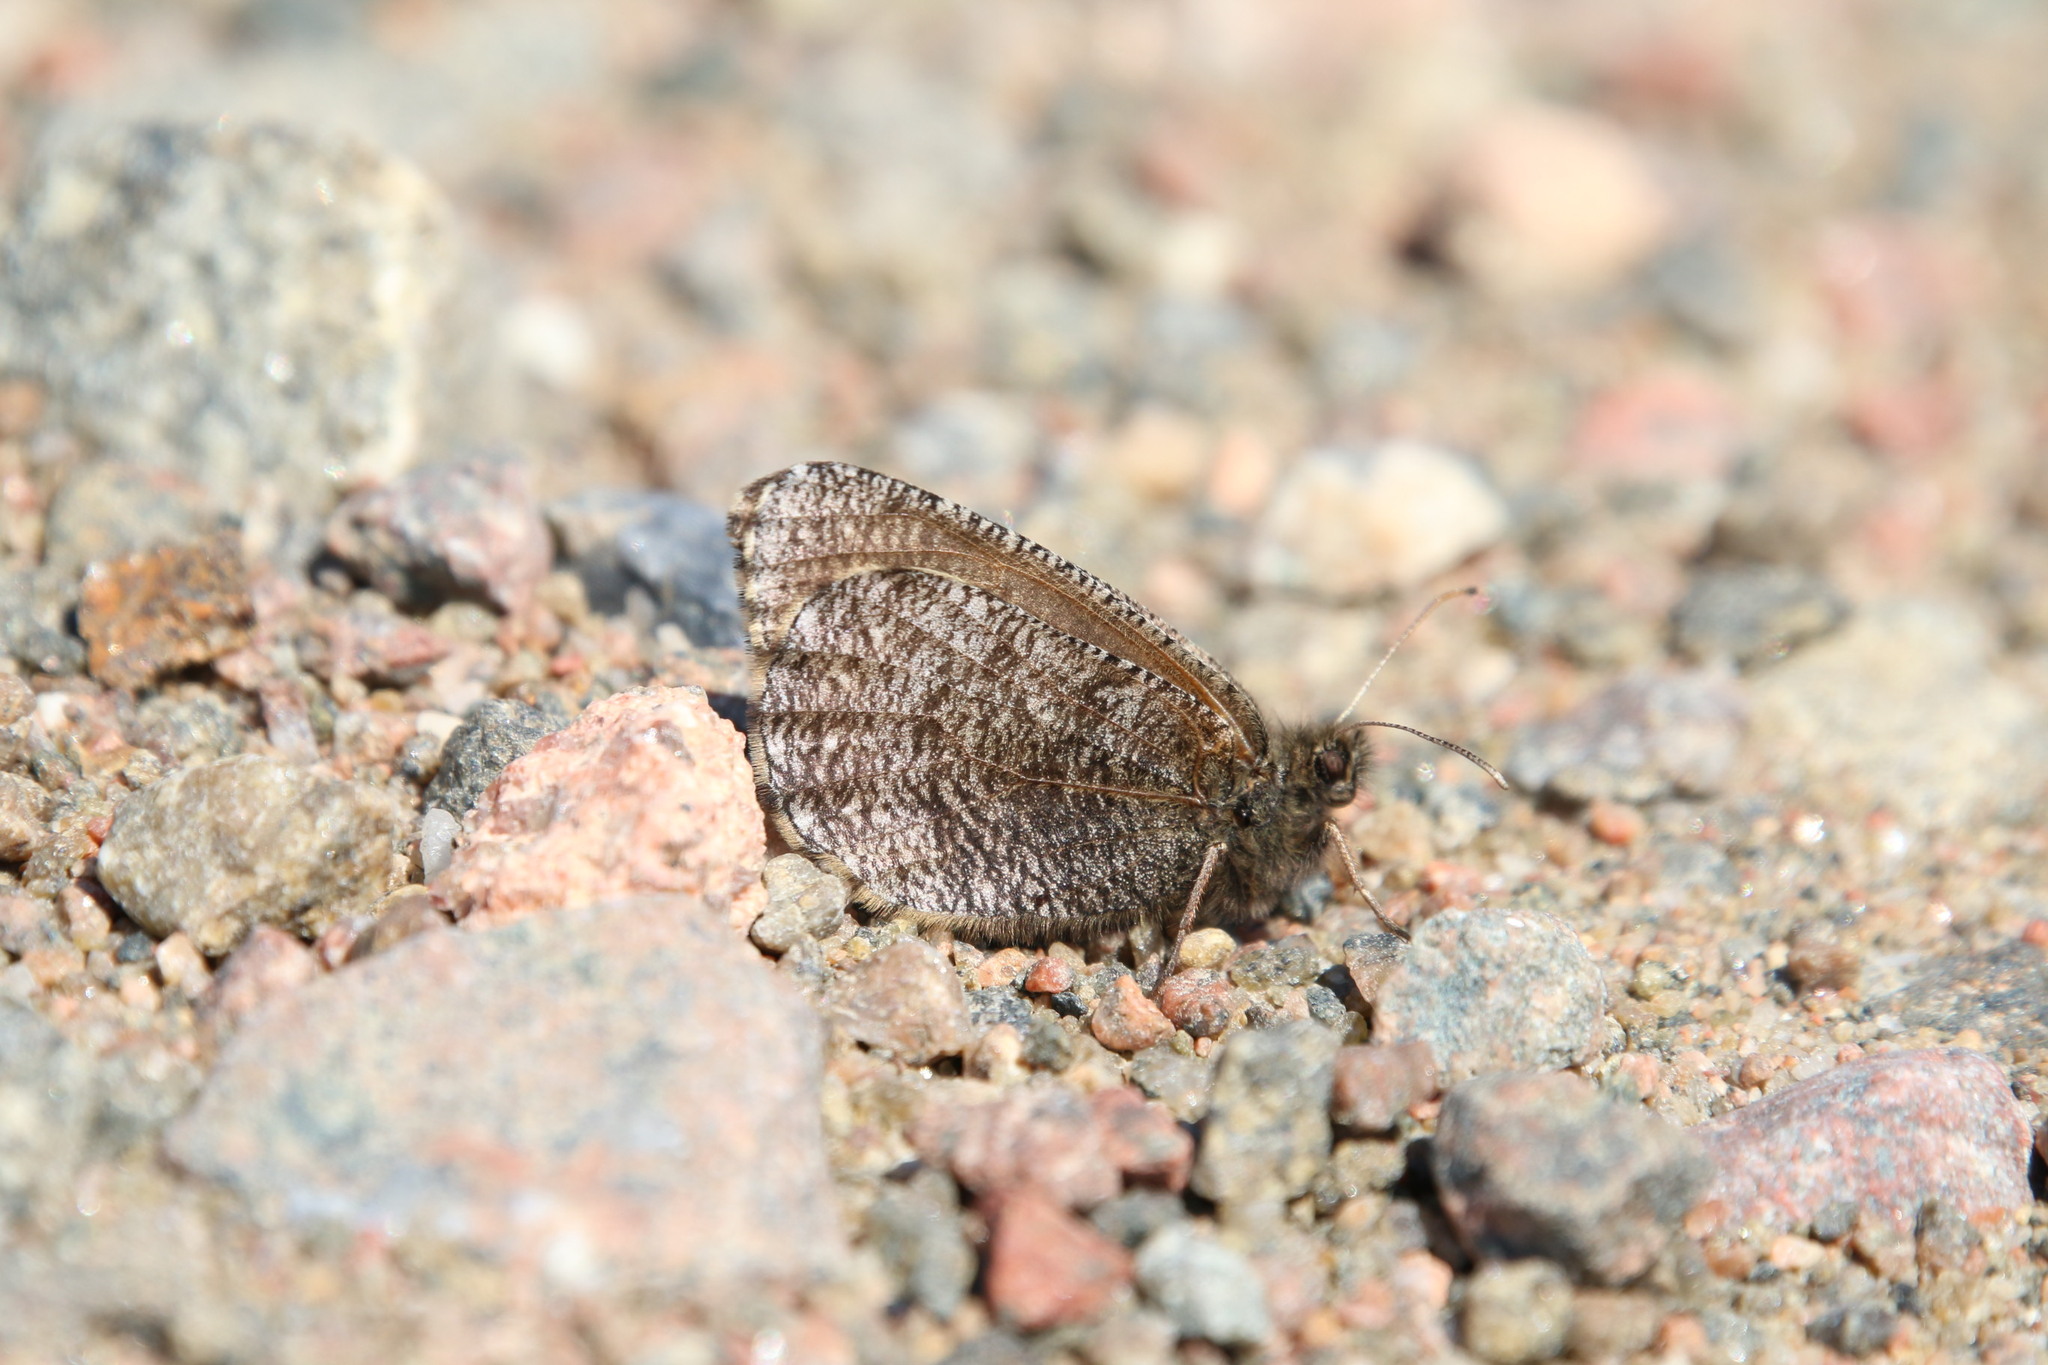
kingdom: Animalia
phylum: Arthropoda
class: Insecta
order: Lepidoptera
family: Nymphalidae
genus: Oeneis
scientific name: Oeneis melissa
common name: Melissa arctic
